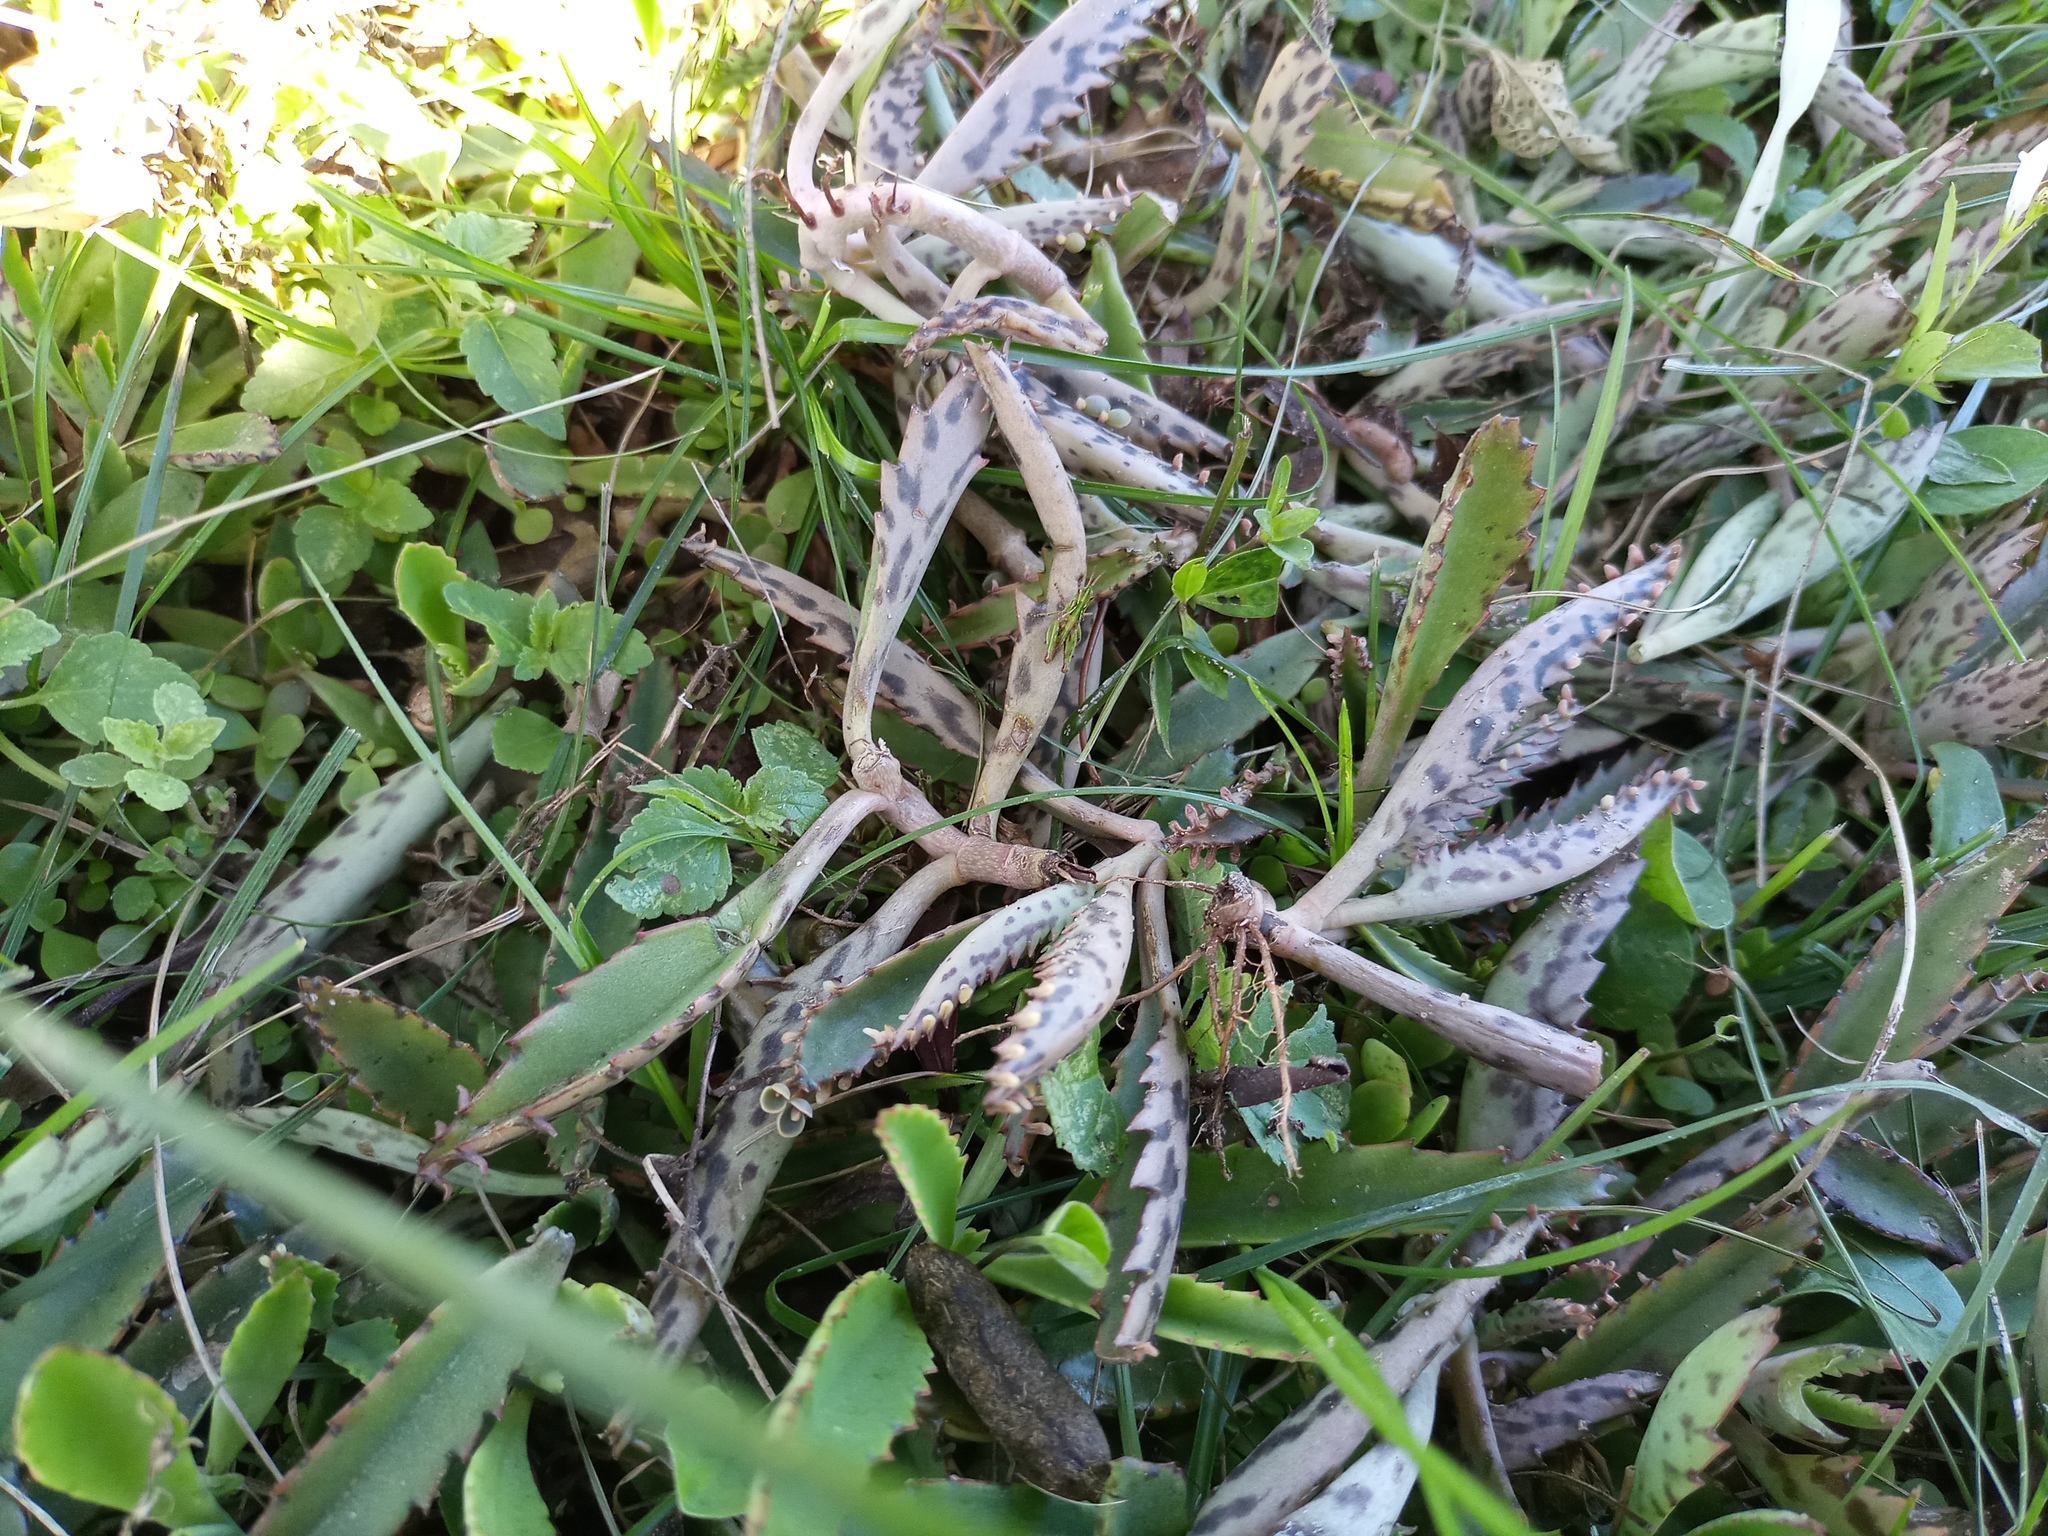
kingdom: Plantae
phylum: Tracheophyta
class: Magnoliopsida
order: Saxifragales
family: Crassulaceae
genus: Kalanchoe
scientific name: Kalanchoe houghtonii
